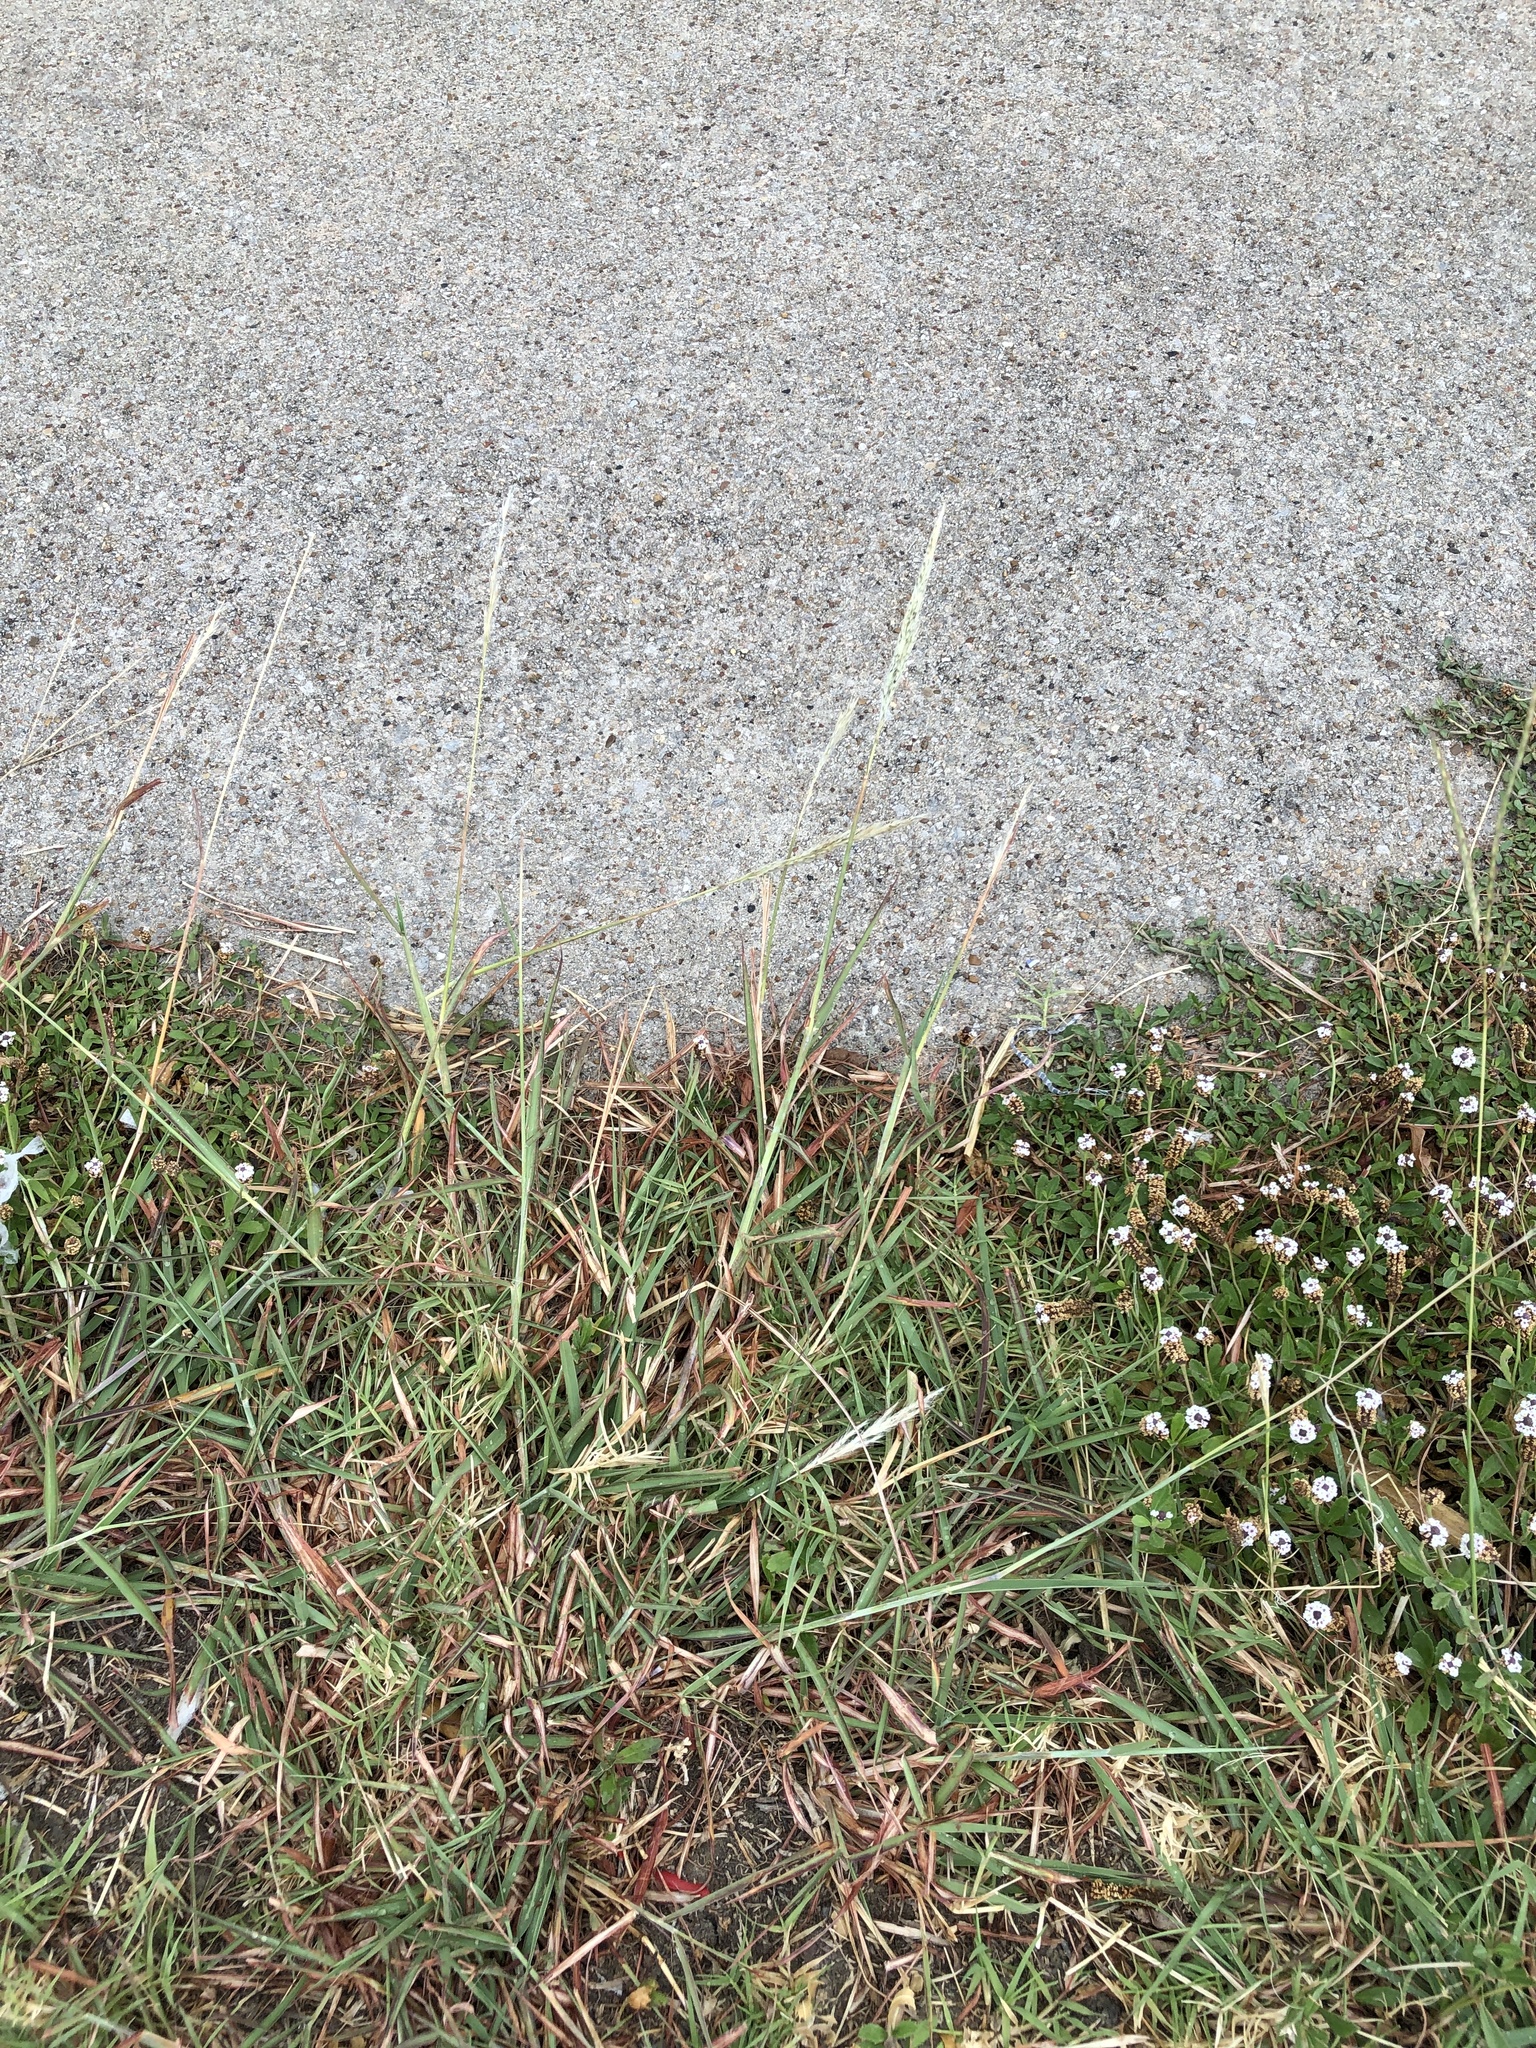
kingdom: Plantae
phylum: Tracheophyta
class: Liliopsida
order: Poales
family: Poaceae
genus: Bothriochloa
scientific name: Bothriochloa torreyana
